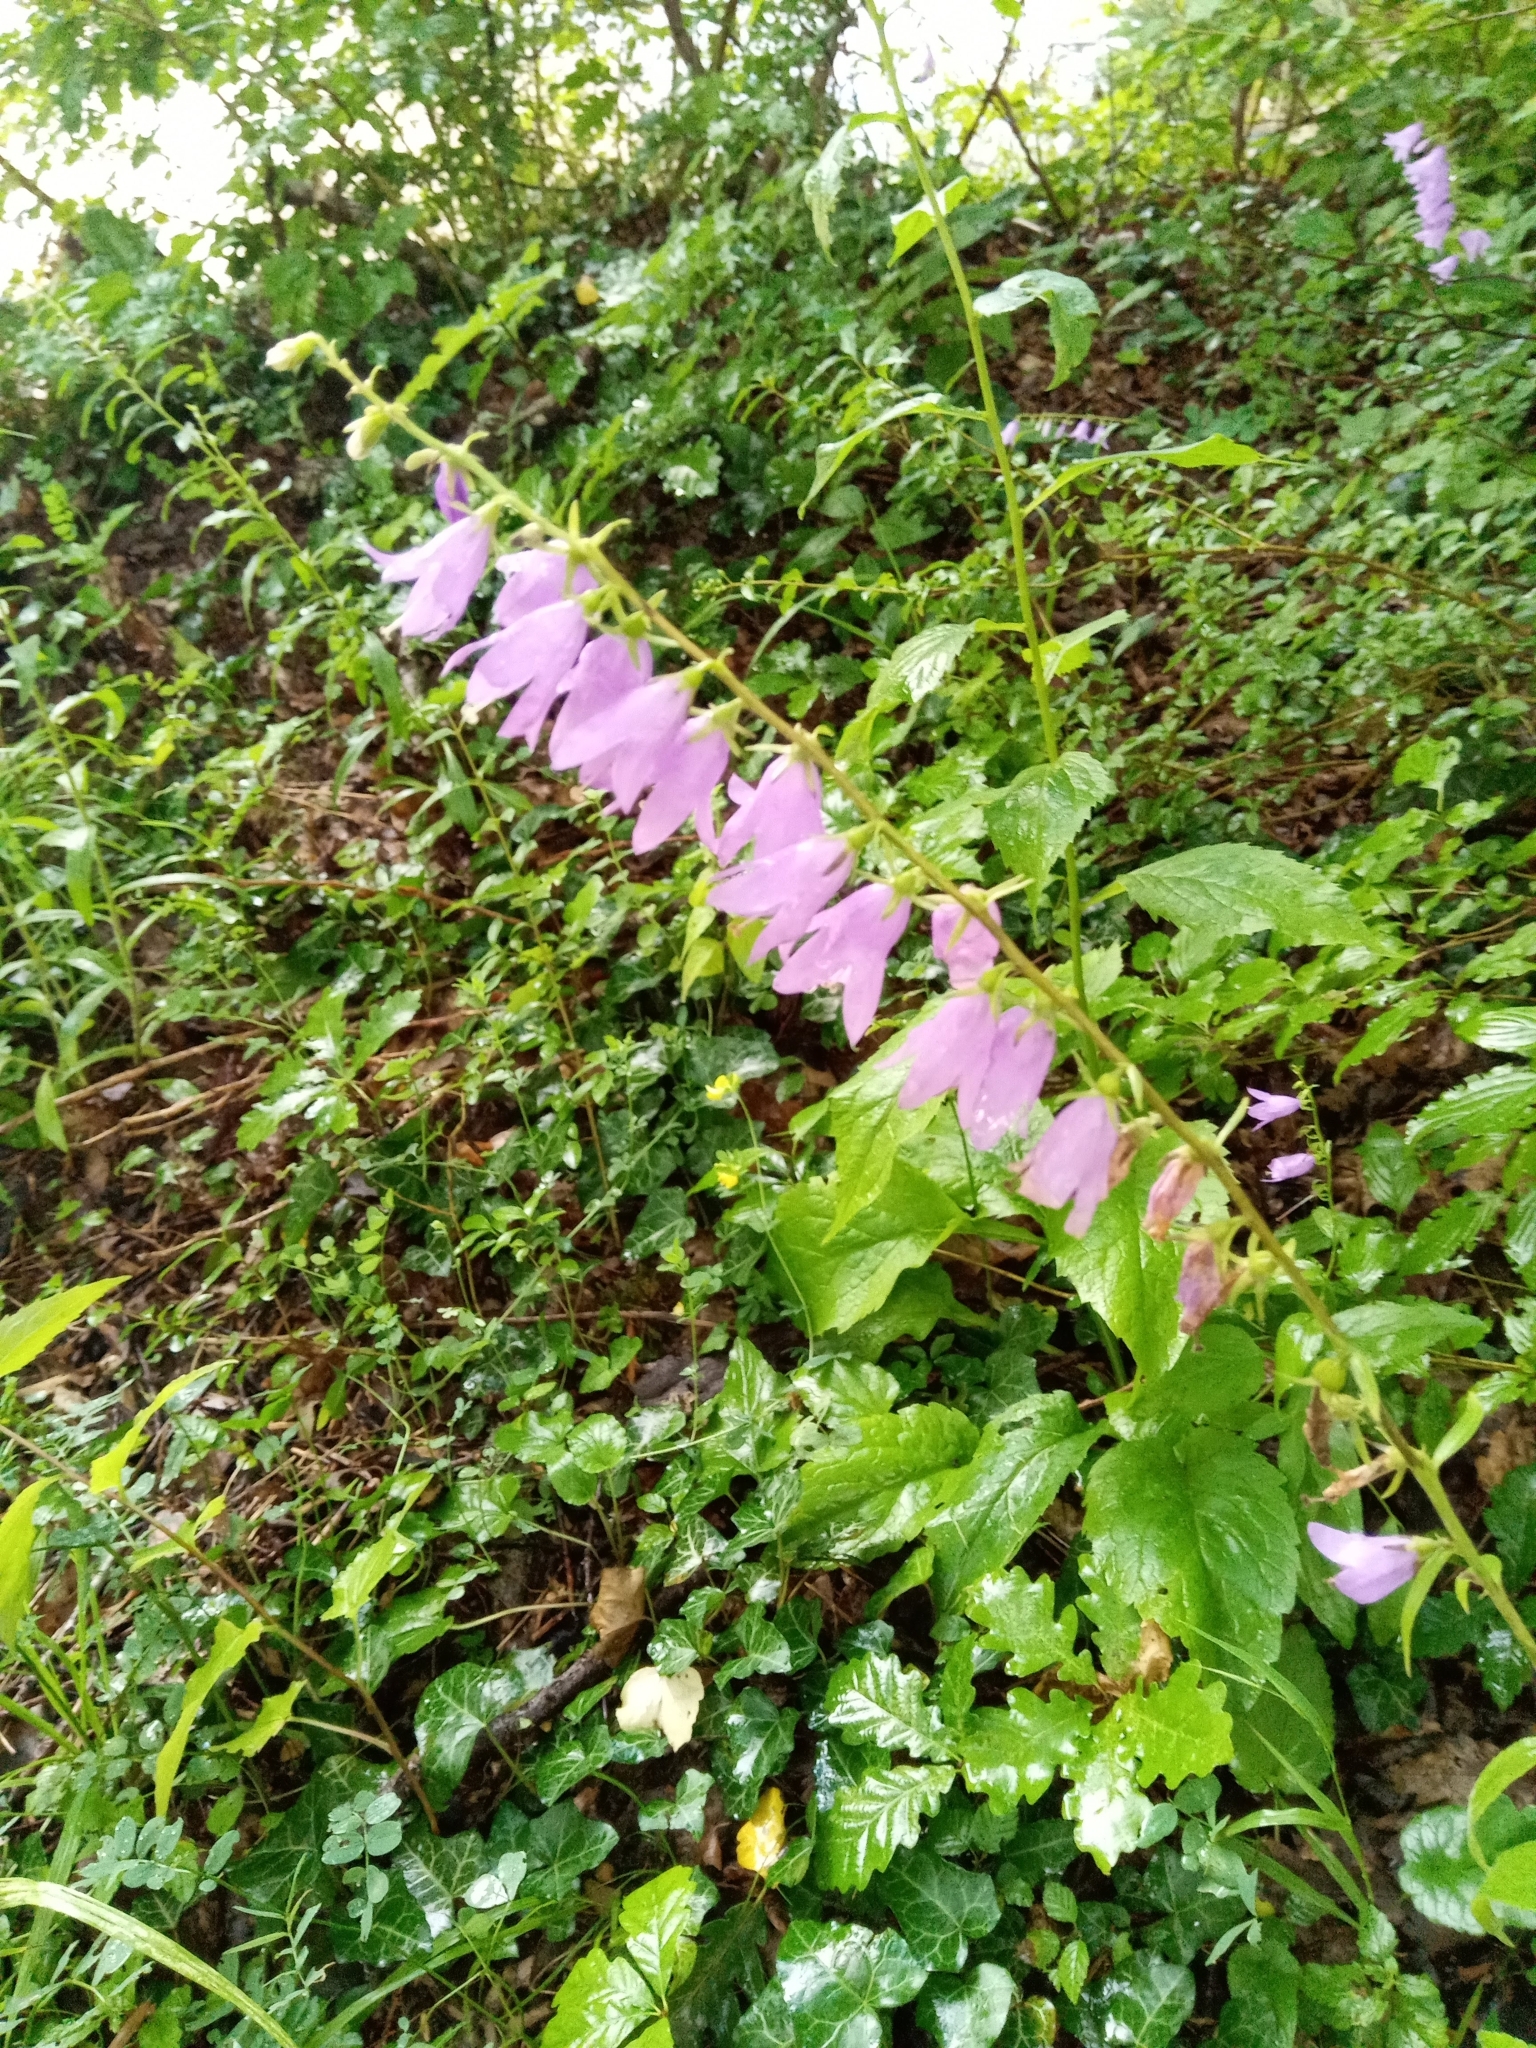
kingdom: Plantae
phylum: Tracheophyta
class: Magnoliopsida
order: Asterales
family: Campanulaceae
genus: Campanula
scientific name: Campanula rapunculoides
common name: Creeping bellflower
